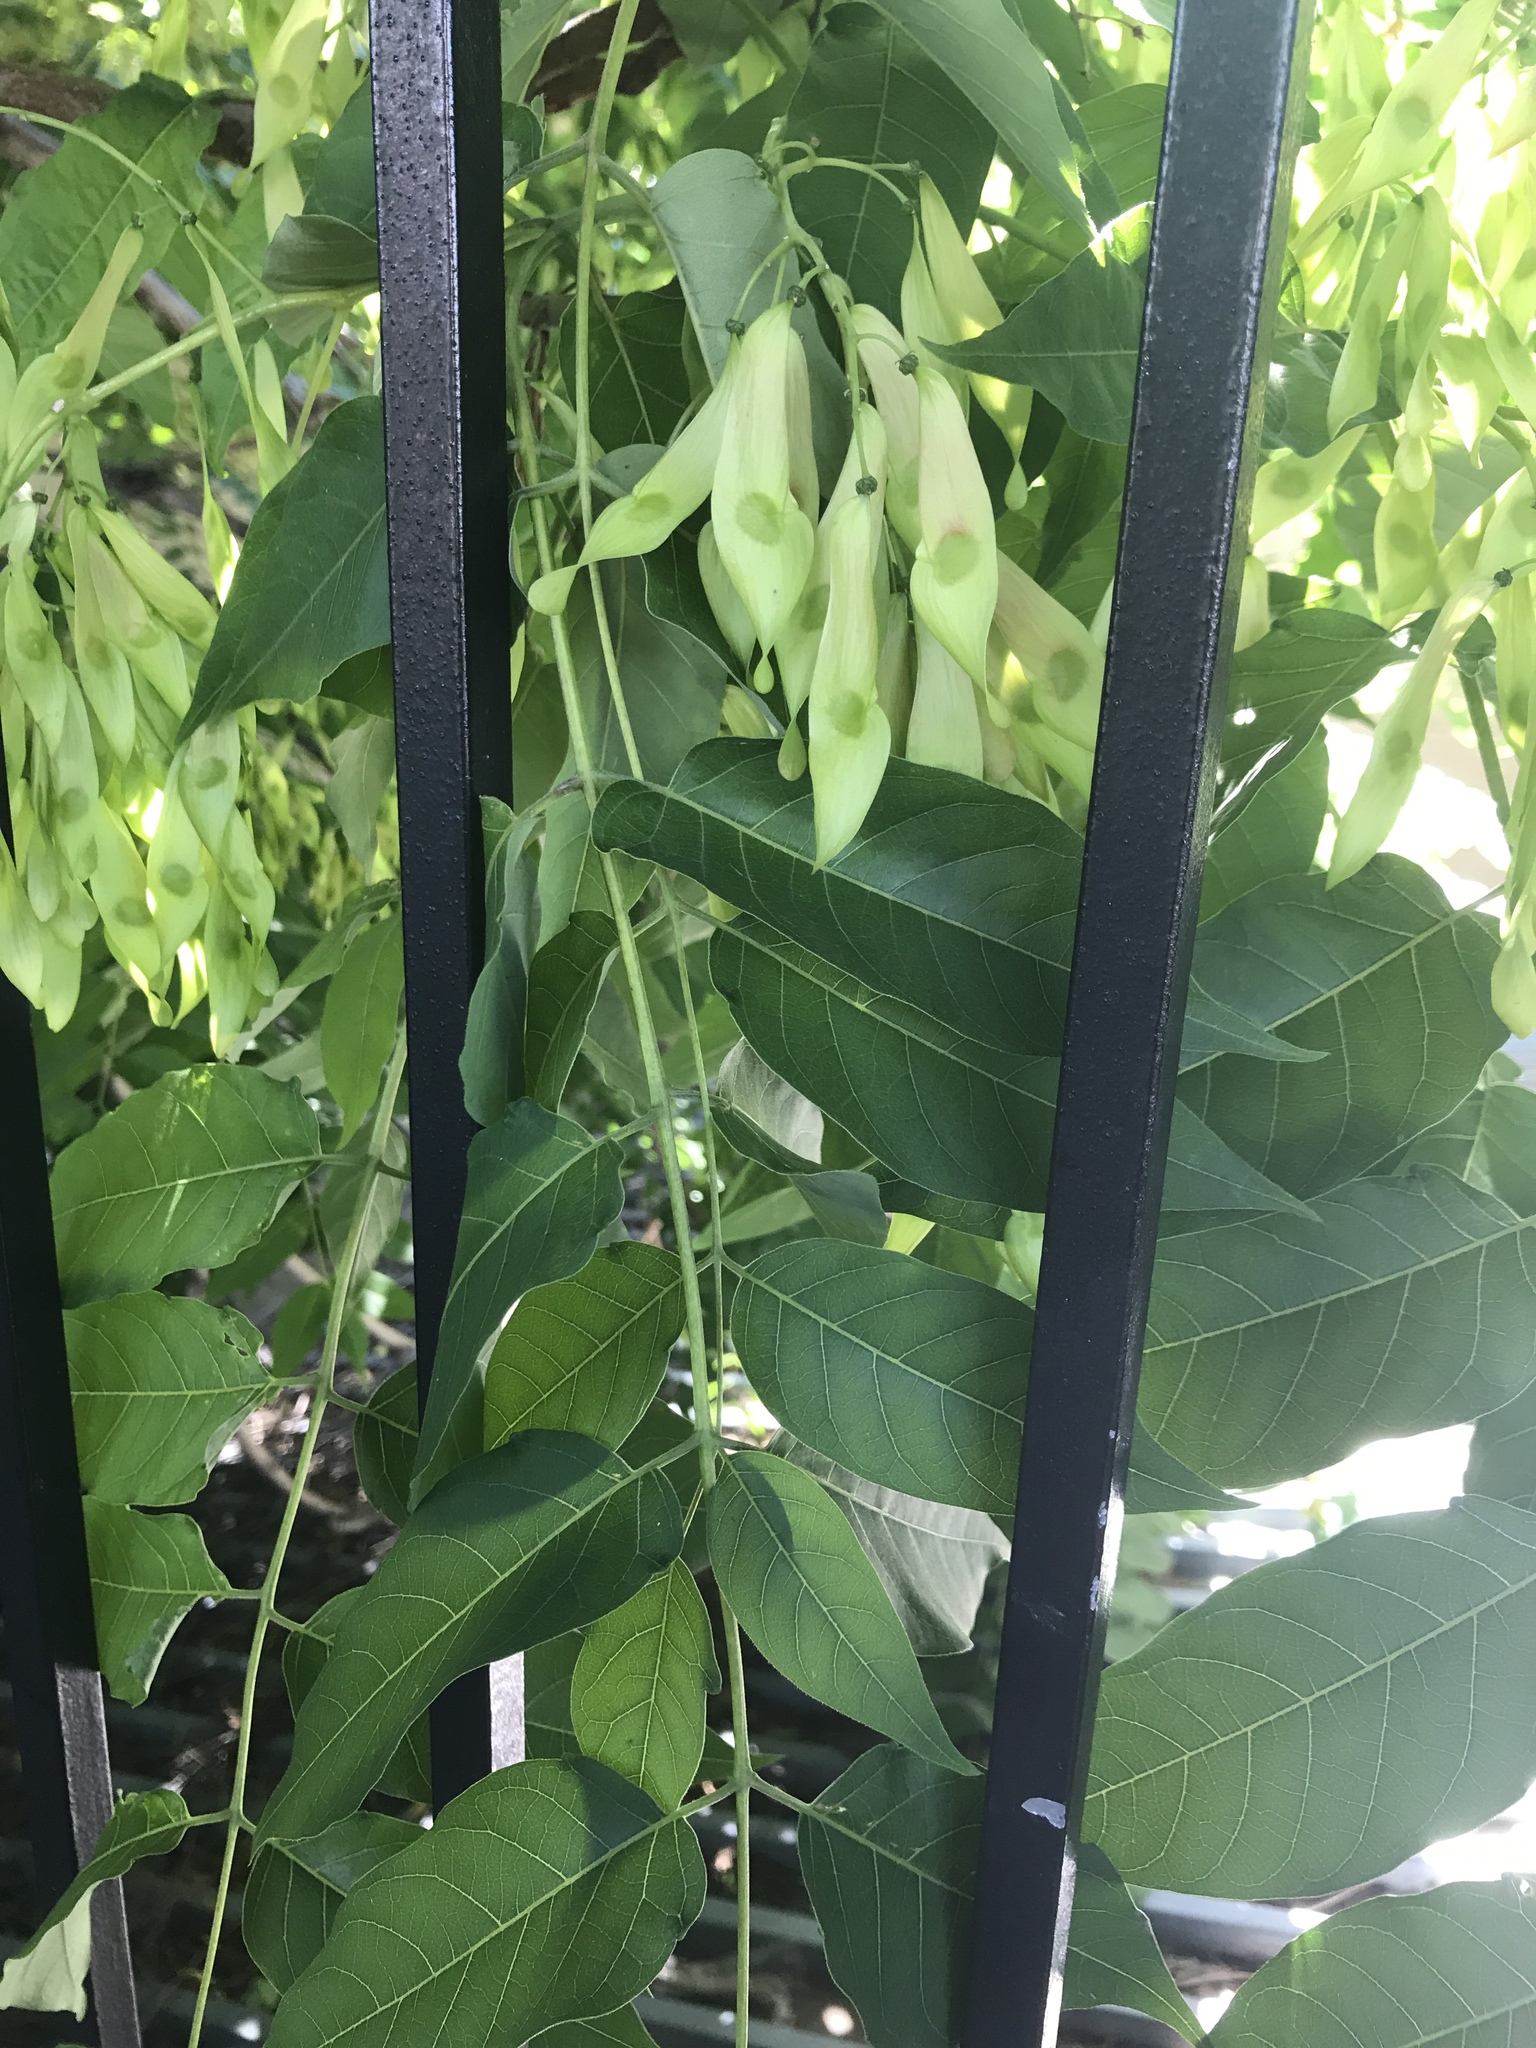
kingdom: Plantae
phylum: Tracheophyta
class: Magnoliopsida
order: Sapindales
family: Simaroubaceae
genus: Ailanthus
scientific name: Ailanthus altissima
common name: Tree-of-heaven
